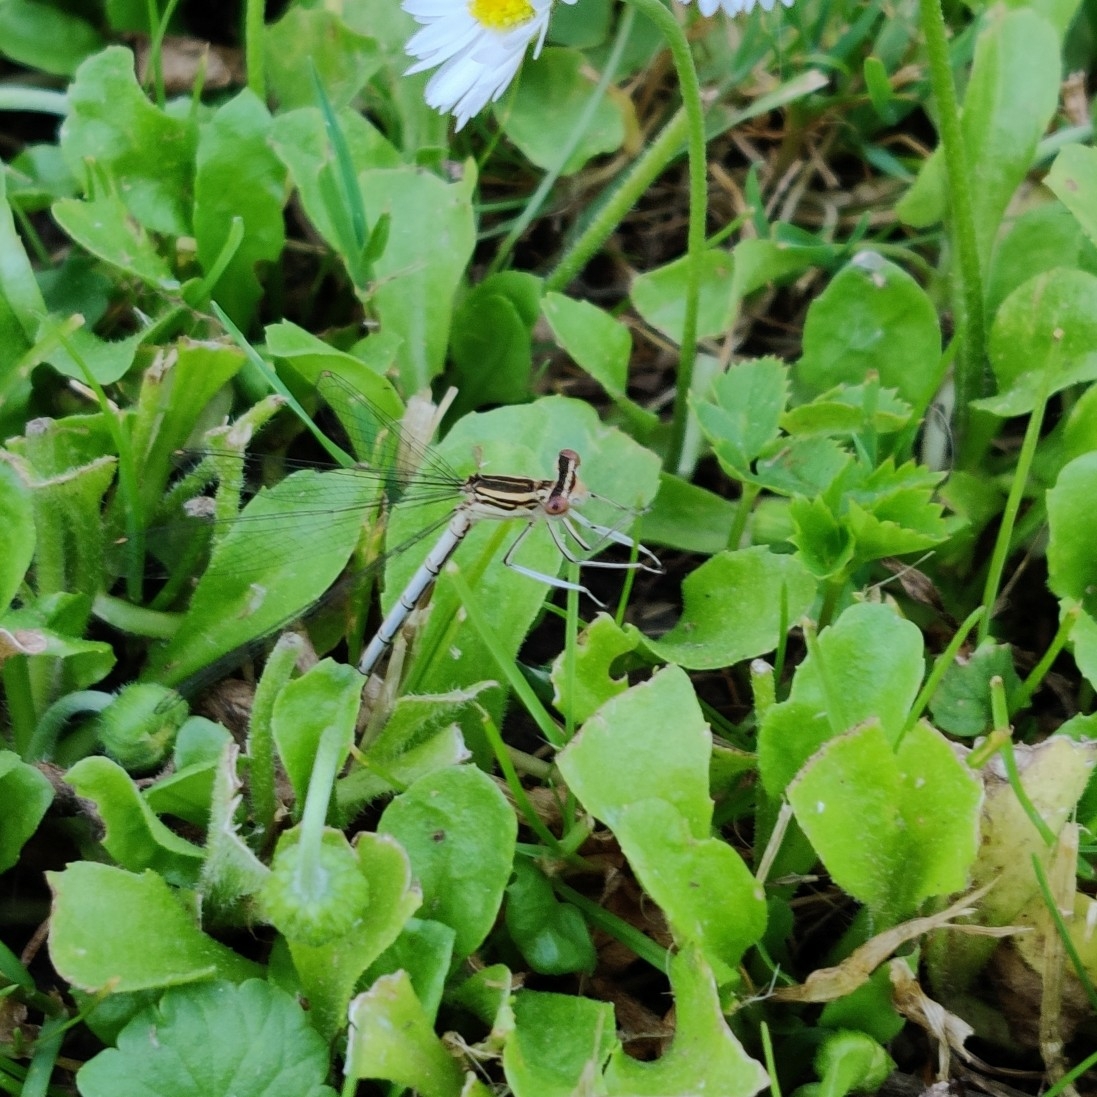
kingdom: Animalia
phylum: Arthropoda
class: Insecta
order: Odonata
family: Platycnemididae
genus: Platycnemis
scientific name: Platycnemis pennipes
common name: White-legged damselfly
